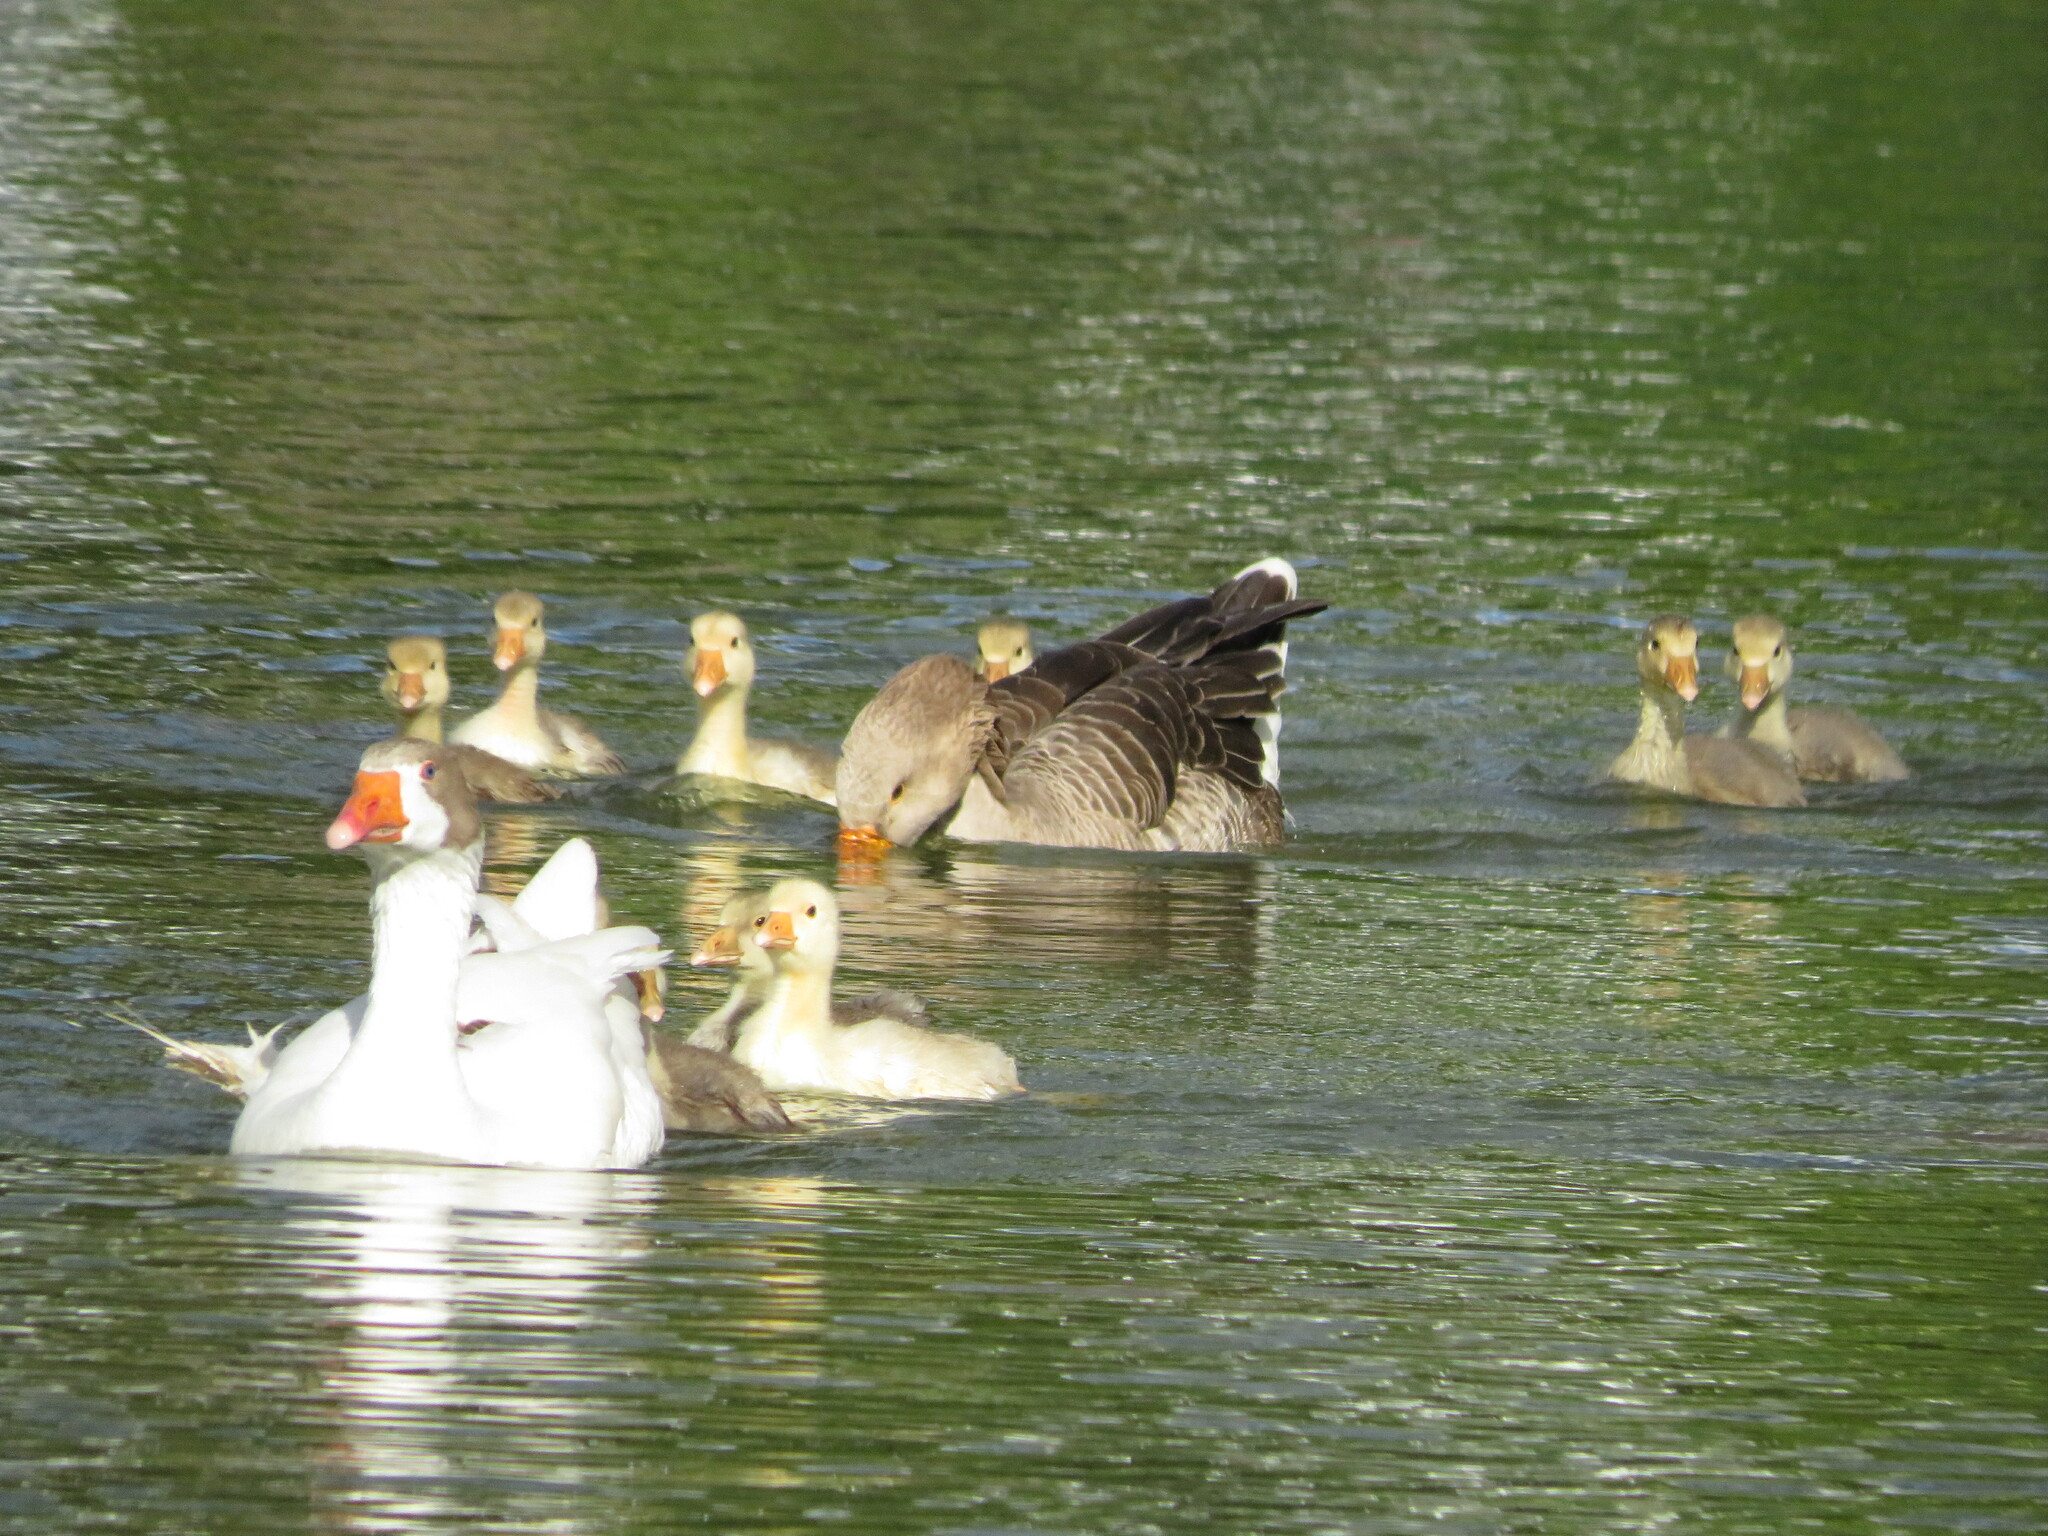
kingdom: Animalia
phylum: Chordata
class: Aves
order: Anseriformes
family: Anatidae
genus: Anser
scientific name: Anser anser
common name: Greylag goose
